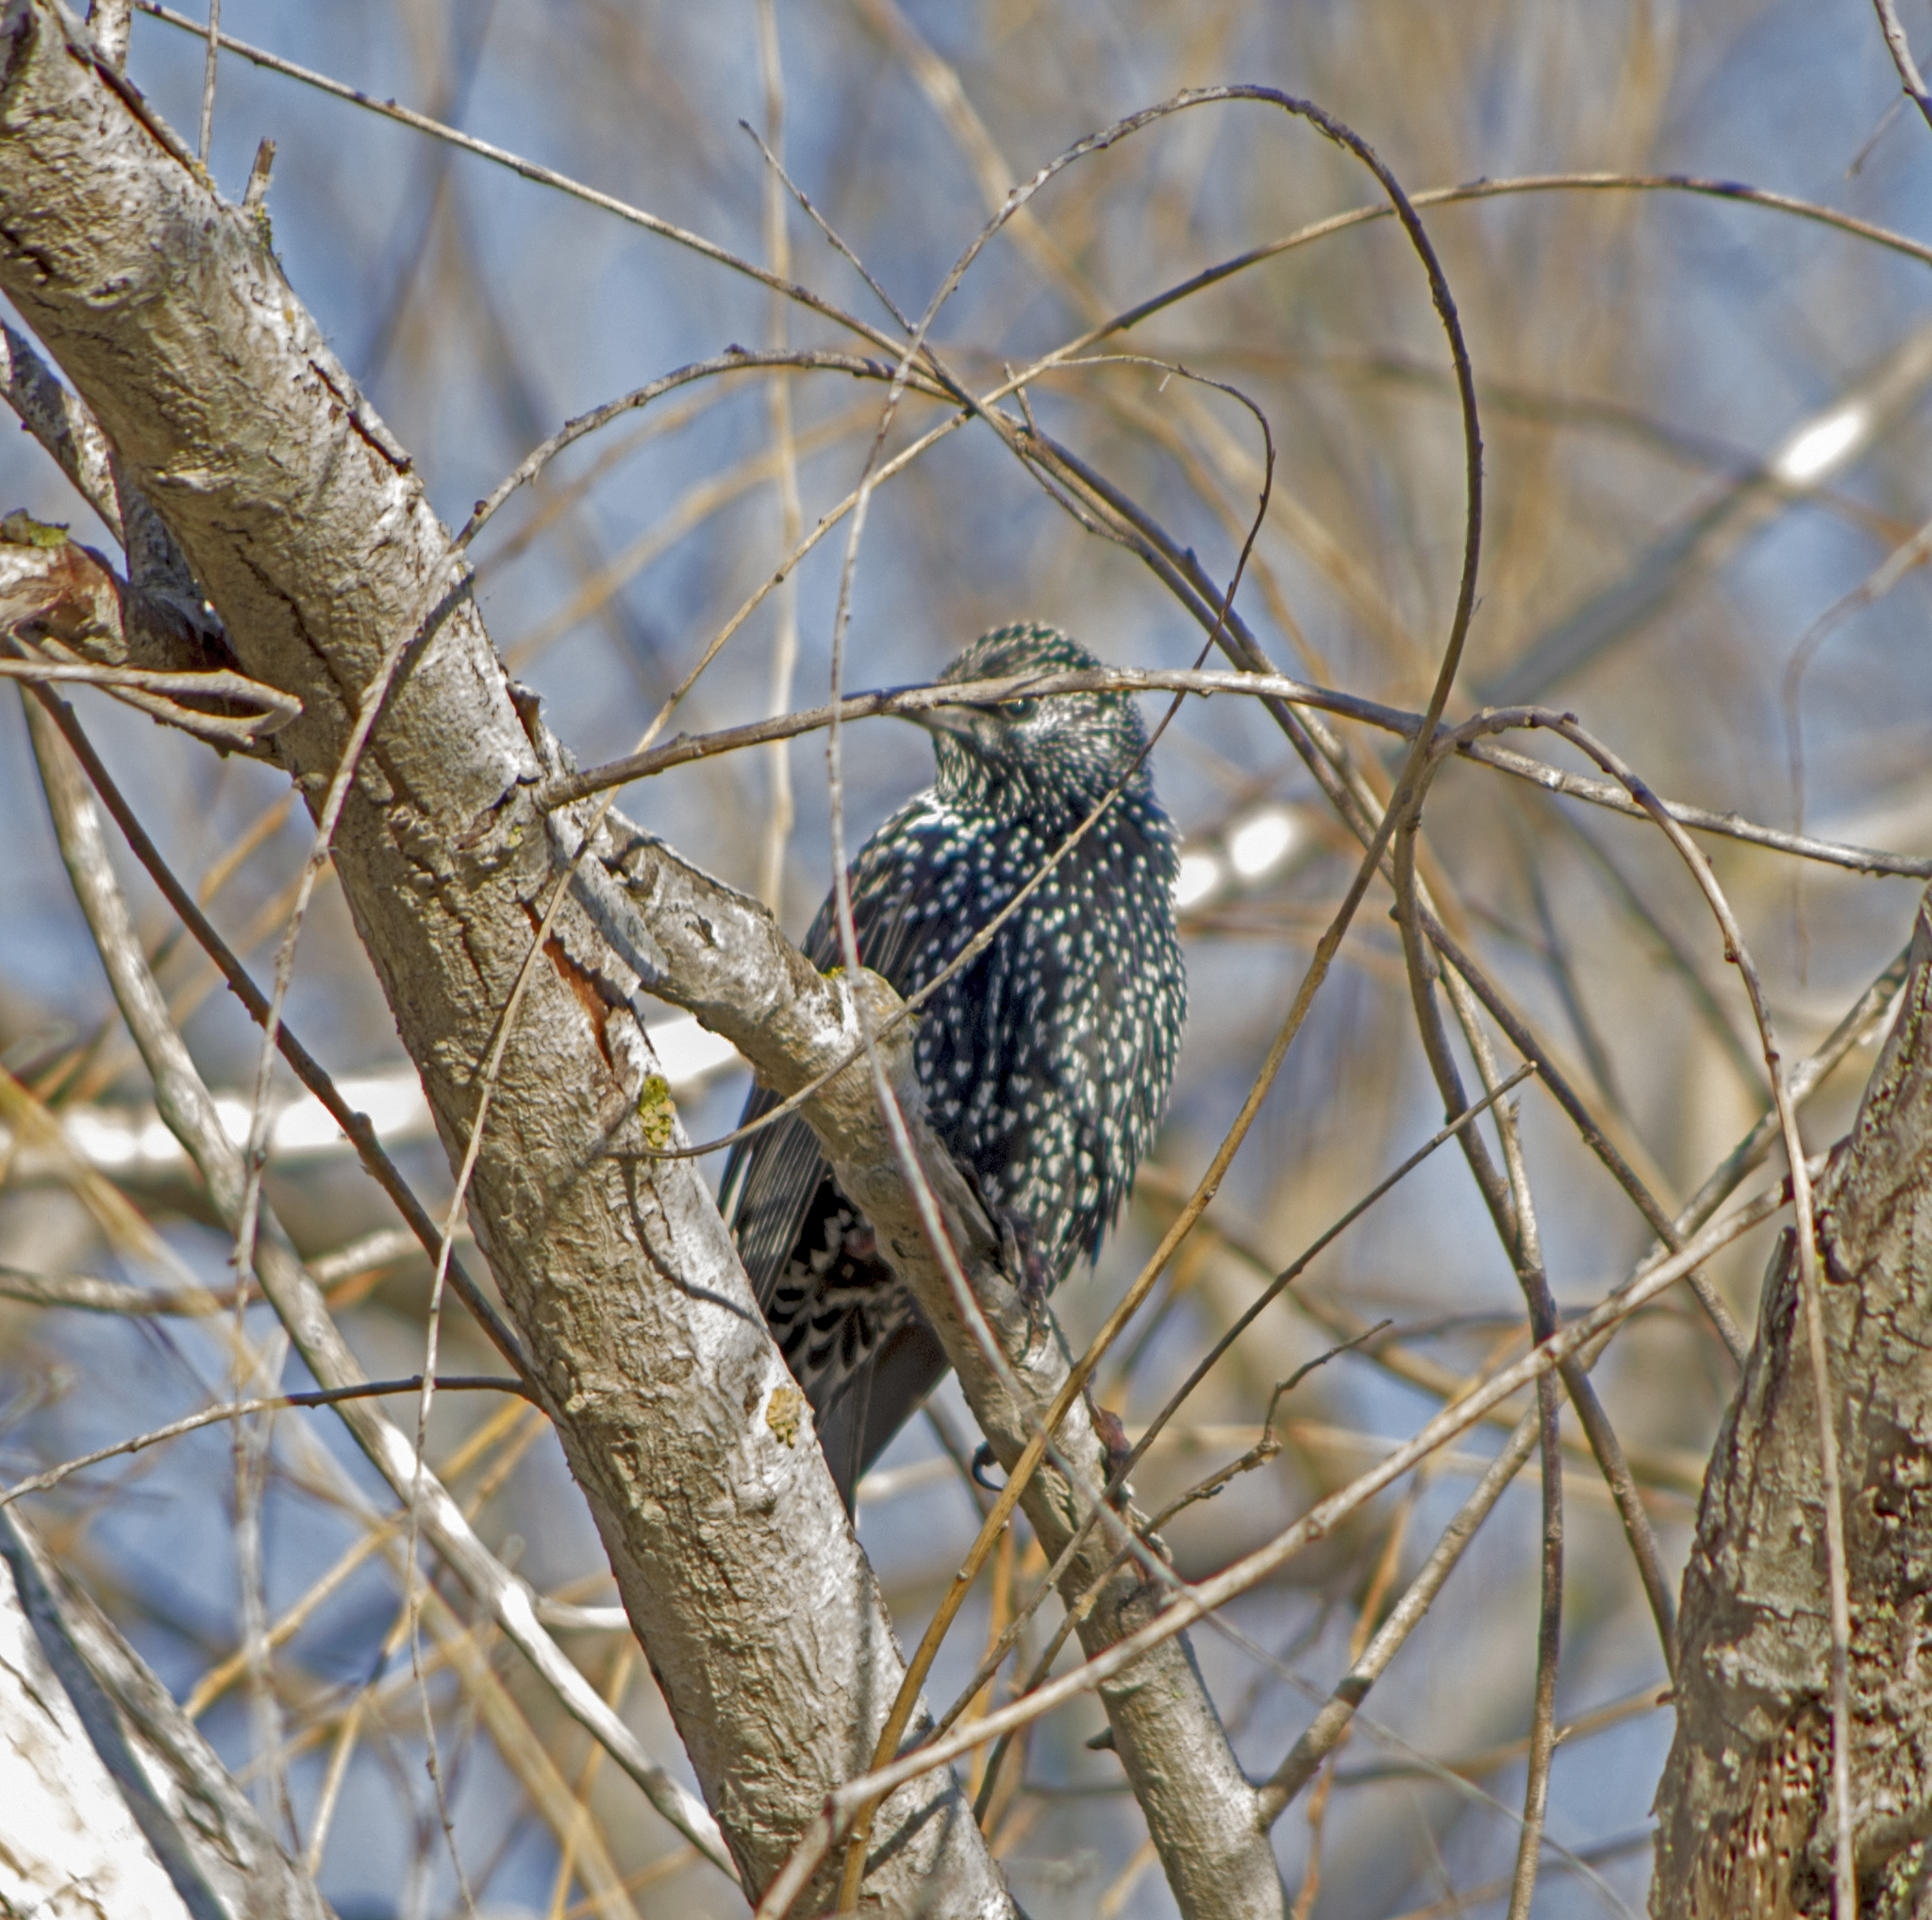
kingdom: Animalia
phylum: Chordata
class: Aves
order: Passeriformes
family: Sturnidae
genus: Sturnus
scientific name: Sturnus vulgaris
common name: Common starling
